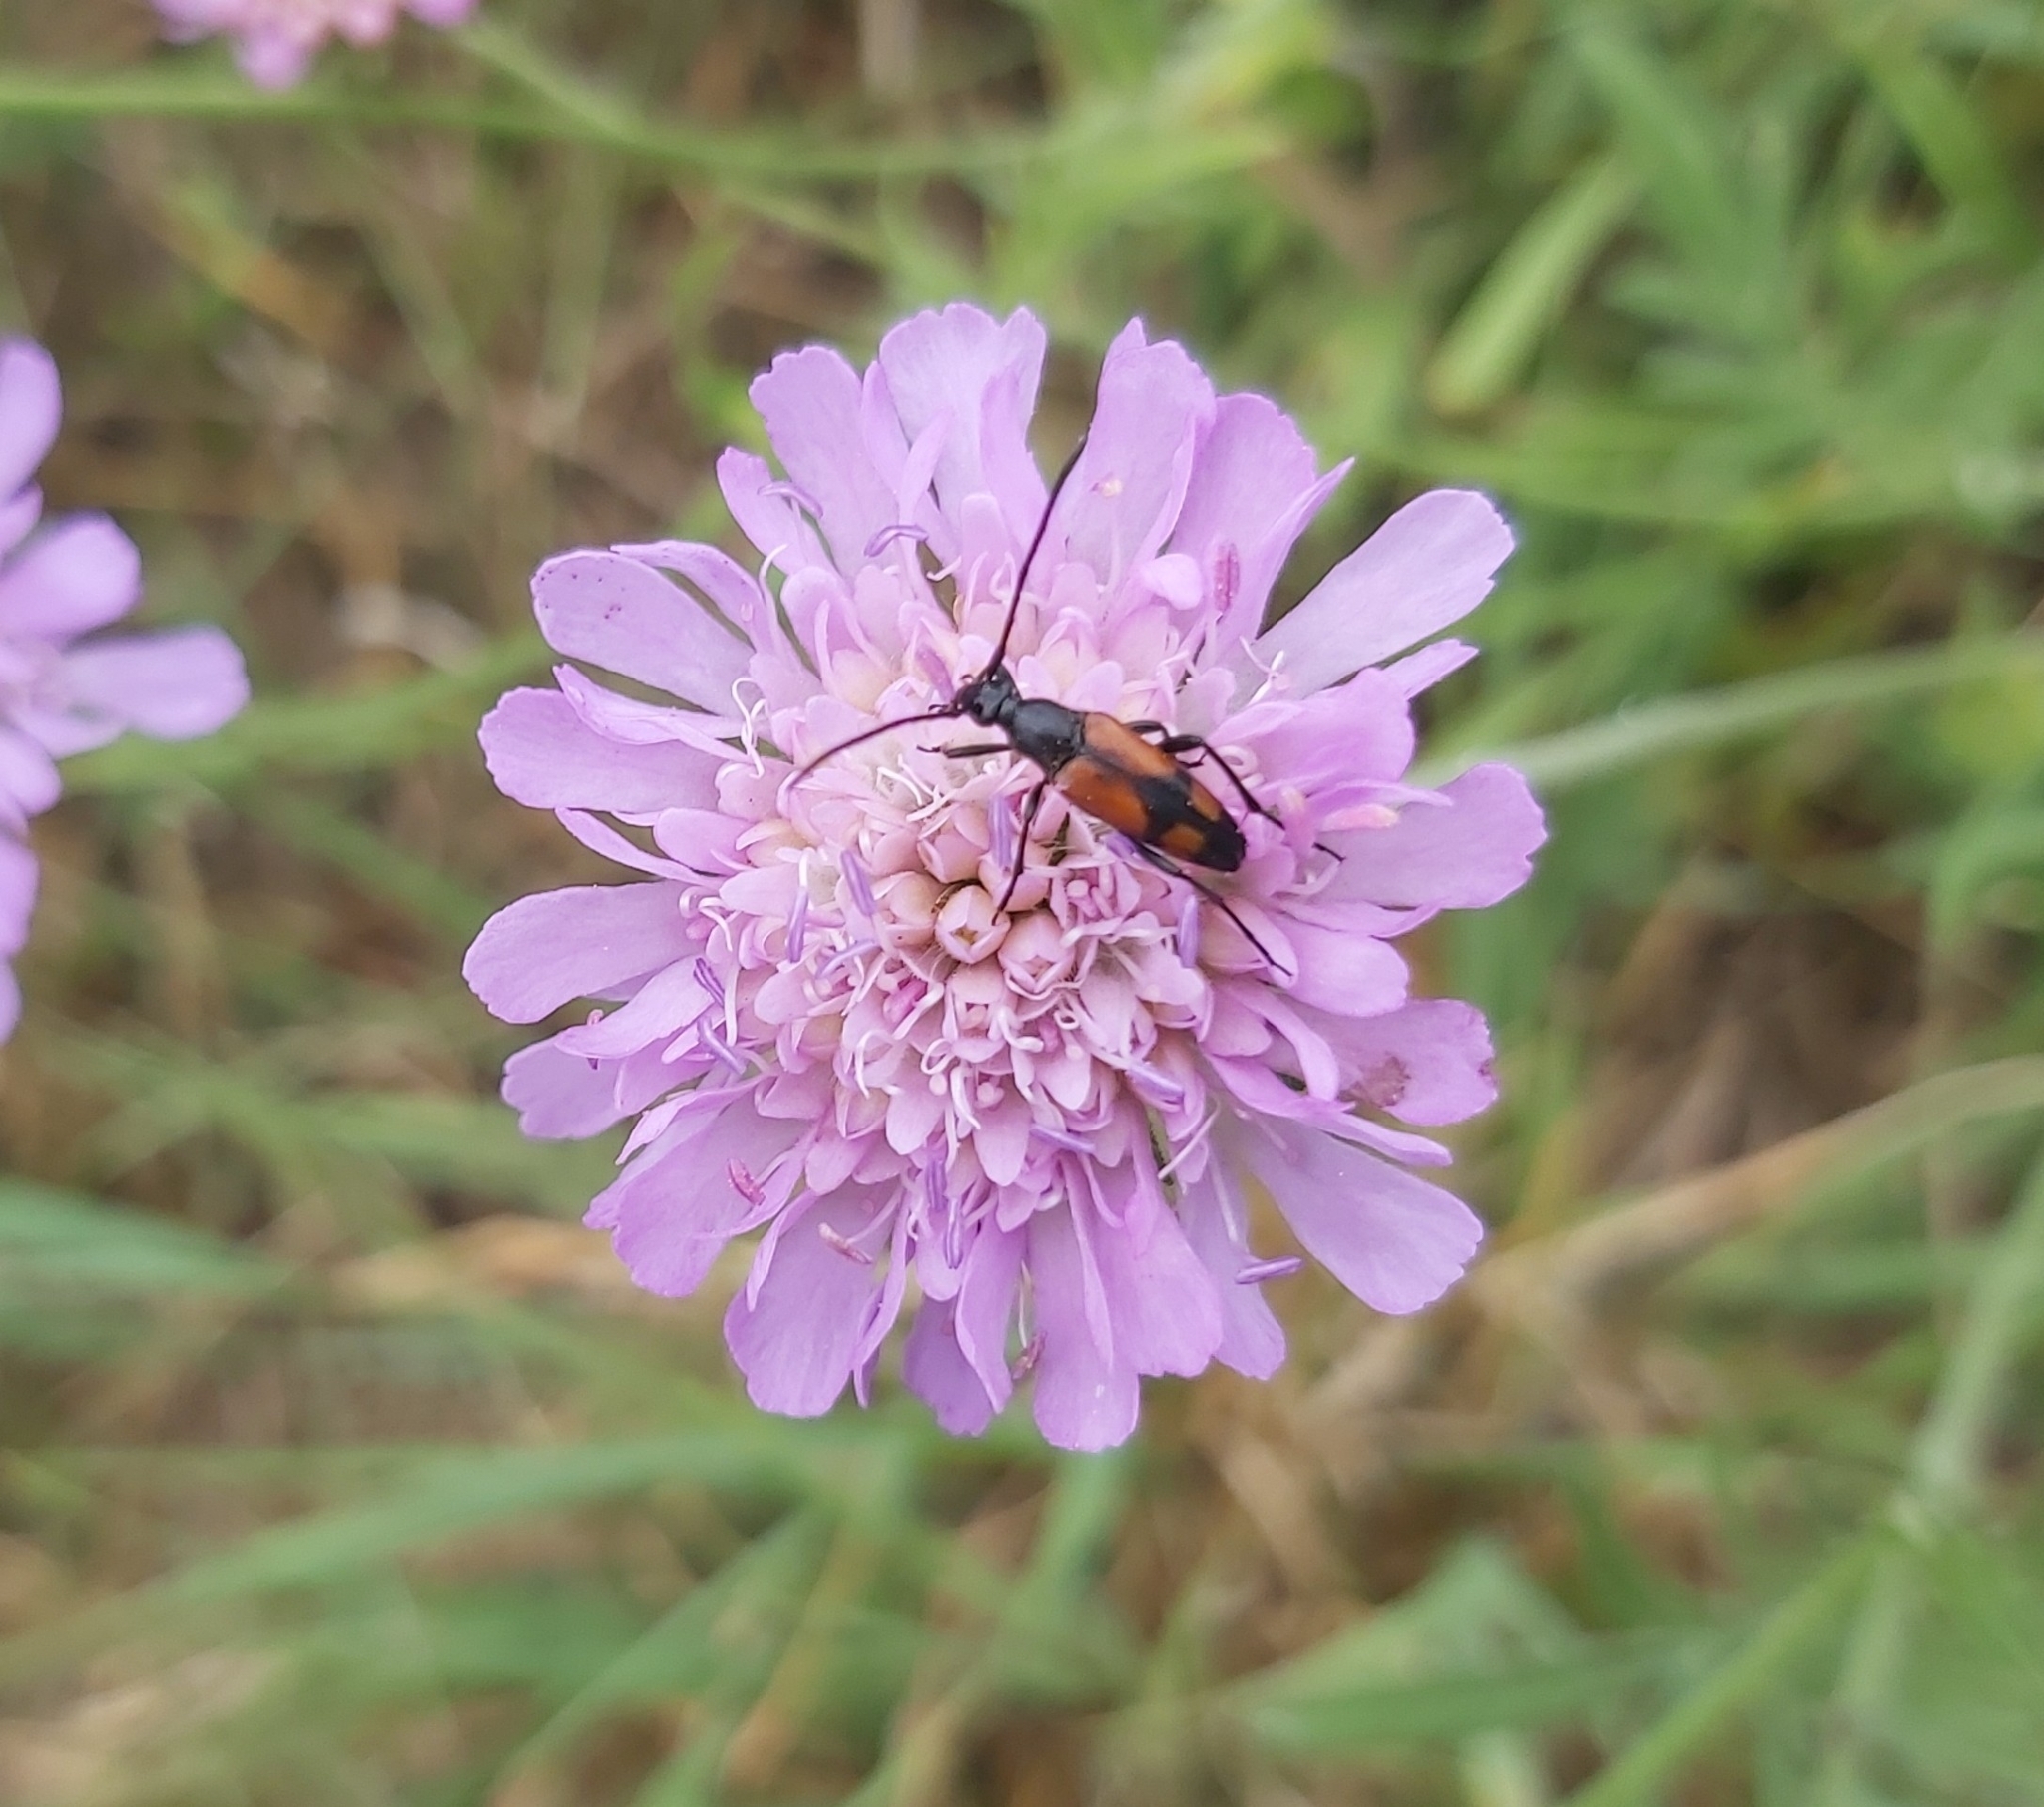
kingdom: Animalia
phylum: Arthropoda
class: Insecta
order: Coleoptera
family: Cerambycidae
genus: Stenurella
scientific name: Stenurella bifasciata
